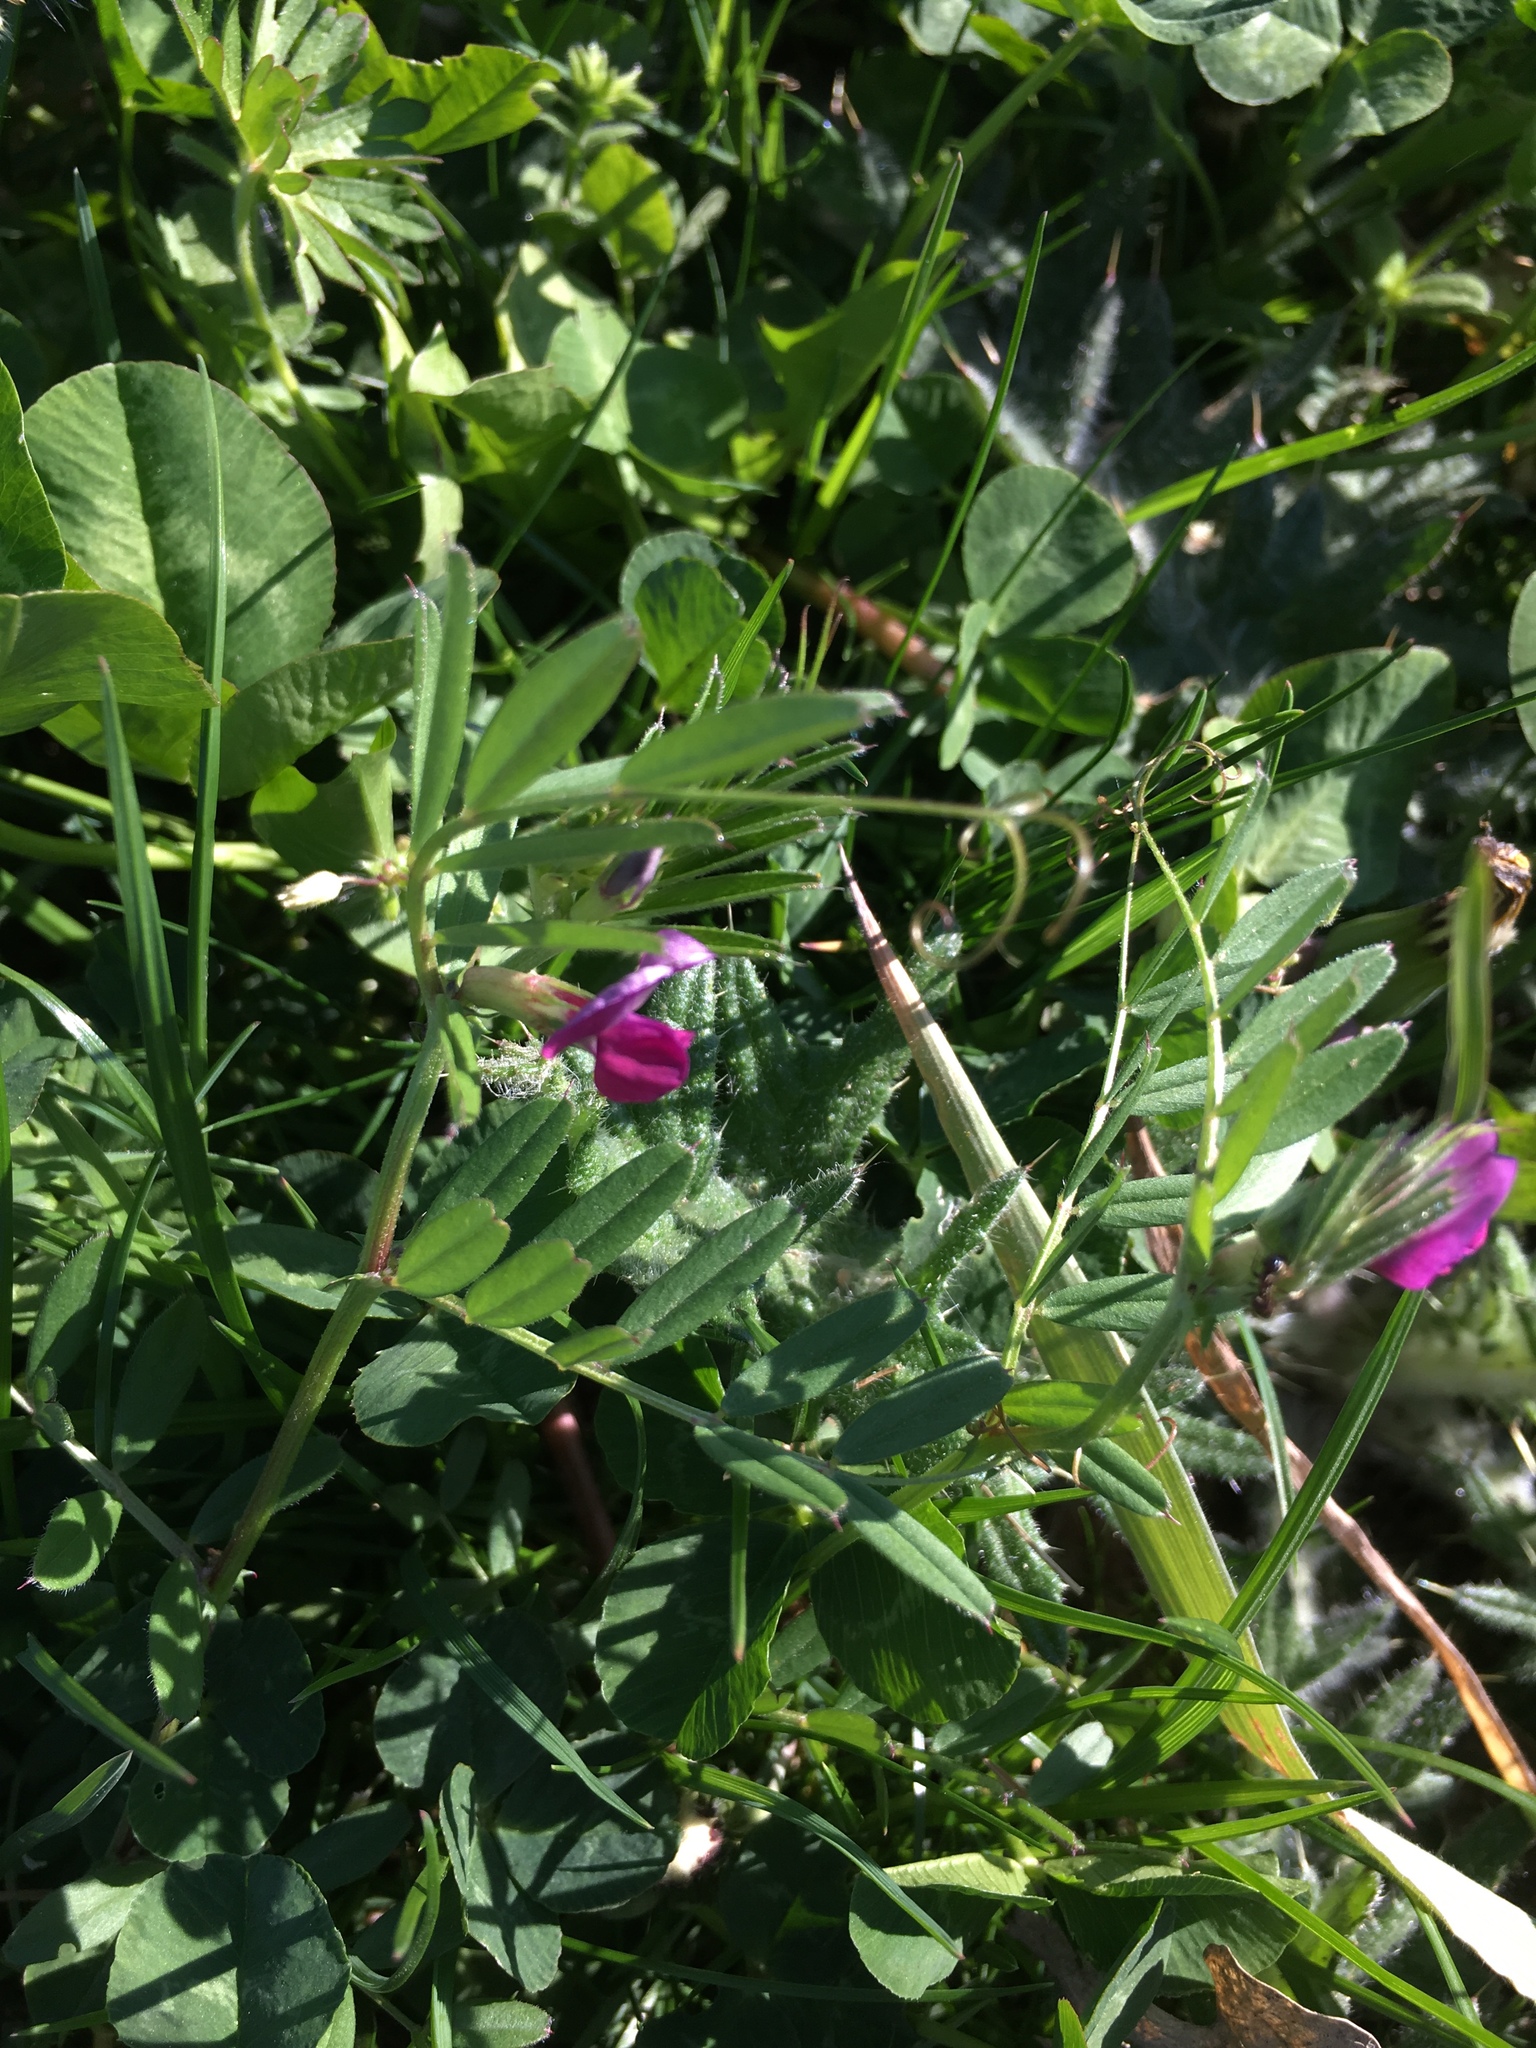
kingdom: Plantae
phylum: Tracheophyta
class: Magnoliopsida
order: Fabales
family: Fabaceae
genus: Vicia
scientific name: Vicia sativa
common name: Garden vetch
